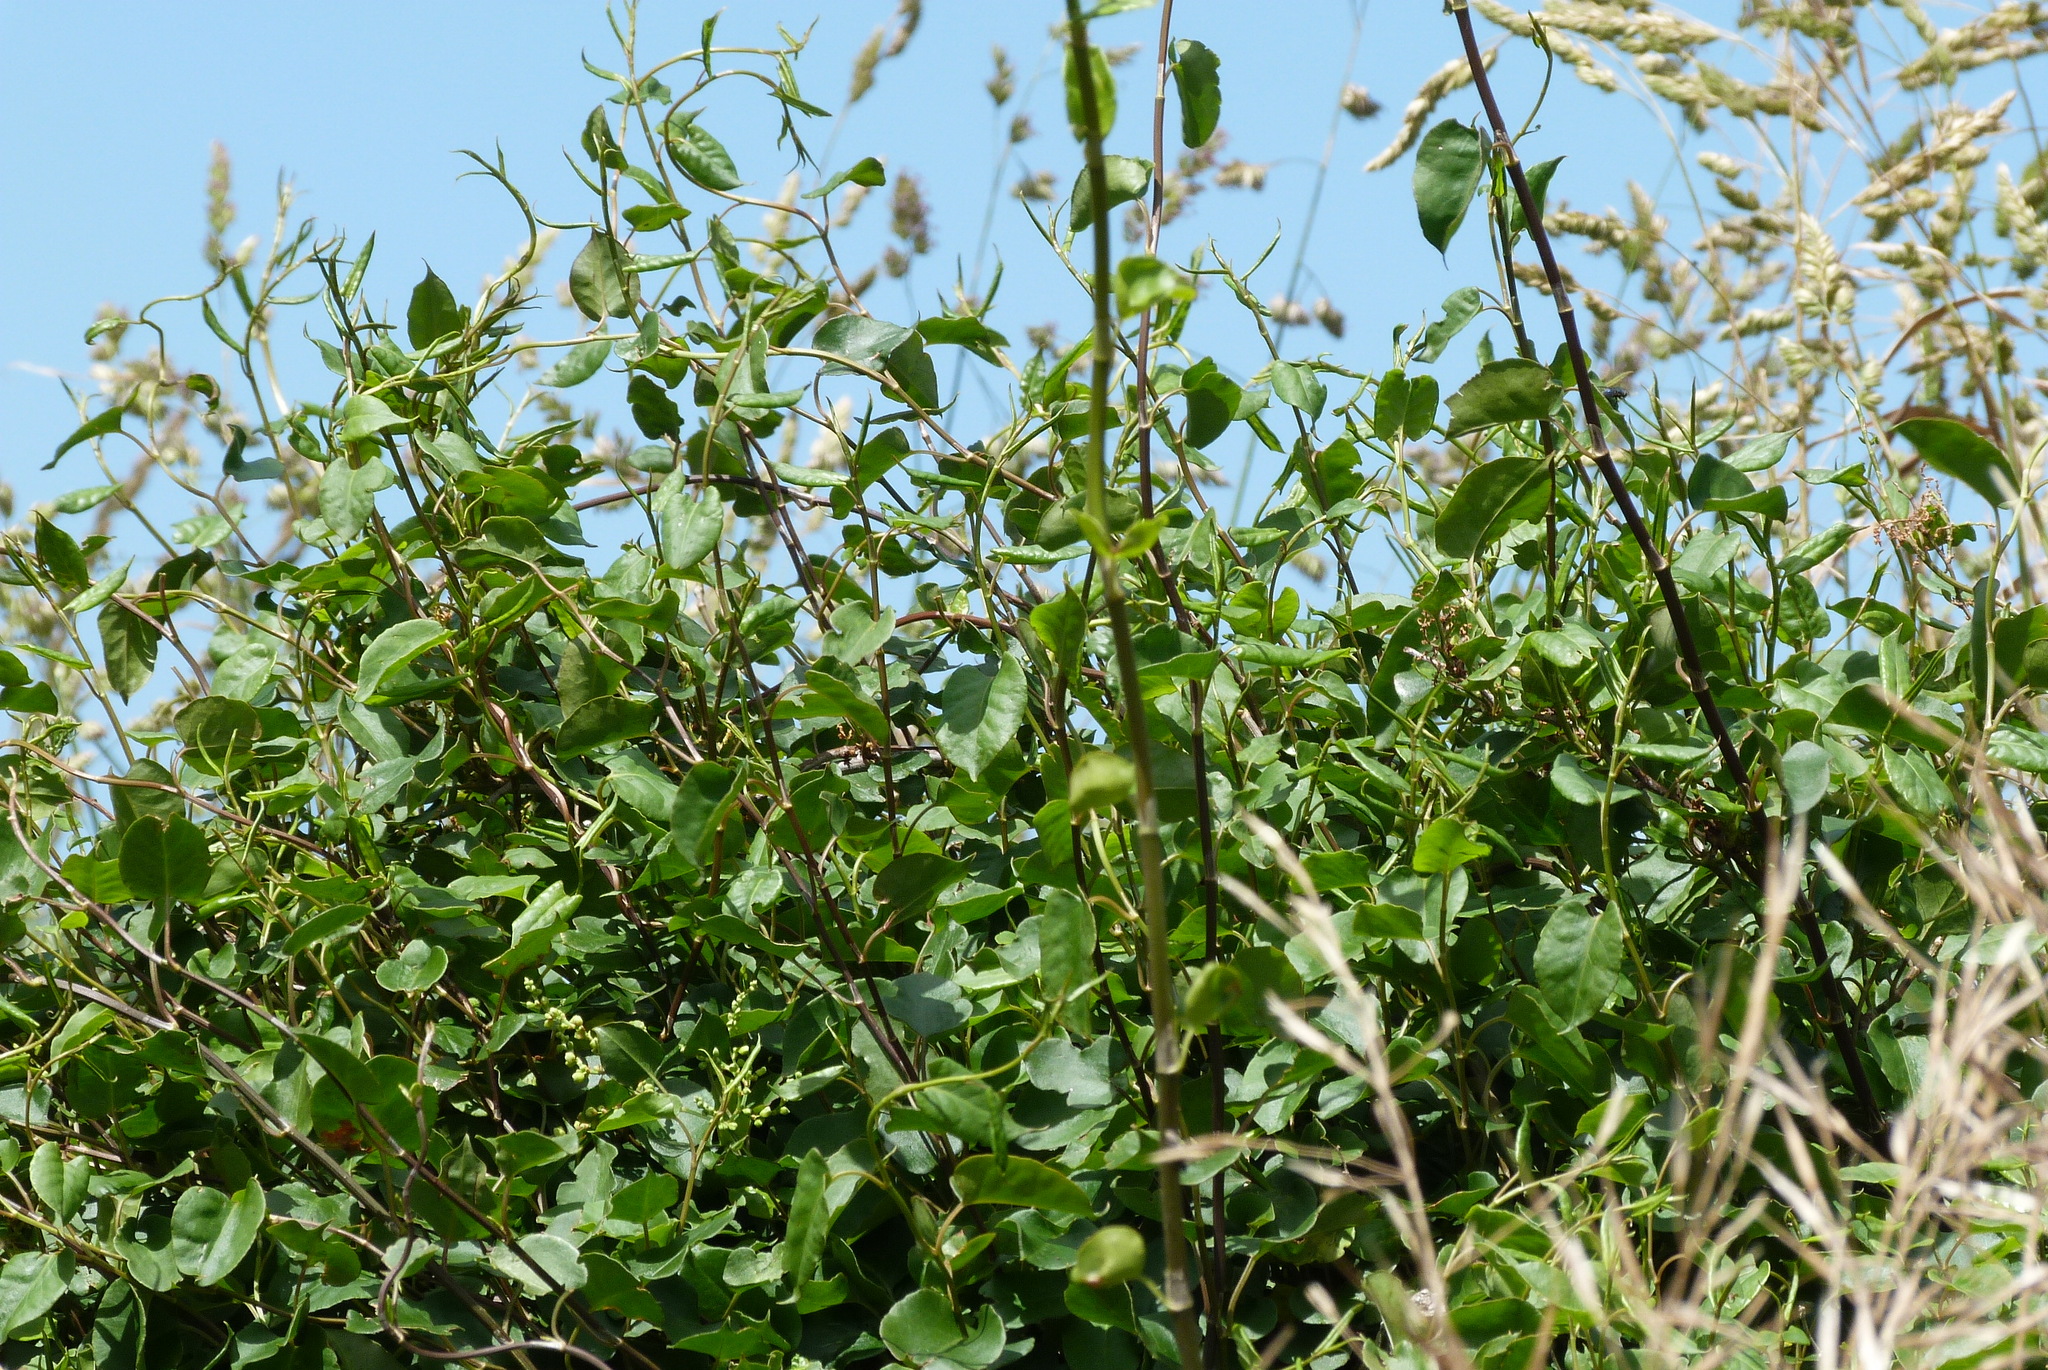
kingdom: Plantae
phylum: Tracheophyta
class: Magnoliopsida
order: Caryophyllales
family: Polygonaceae
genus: Muehlenbeckia
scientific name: Muehlenbeckia australis
